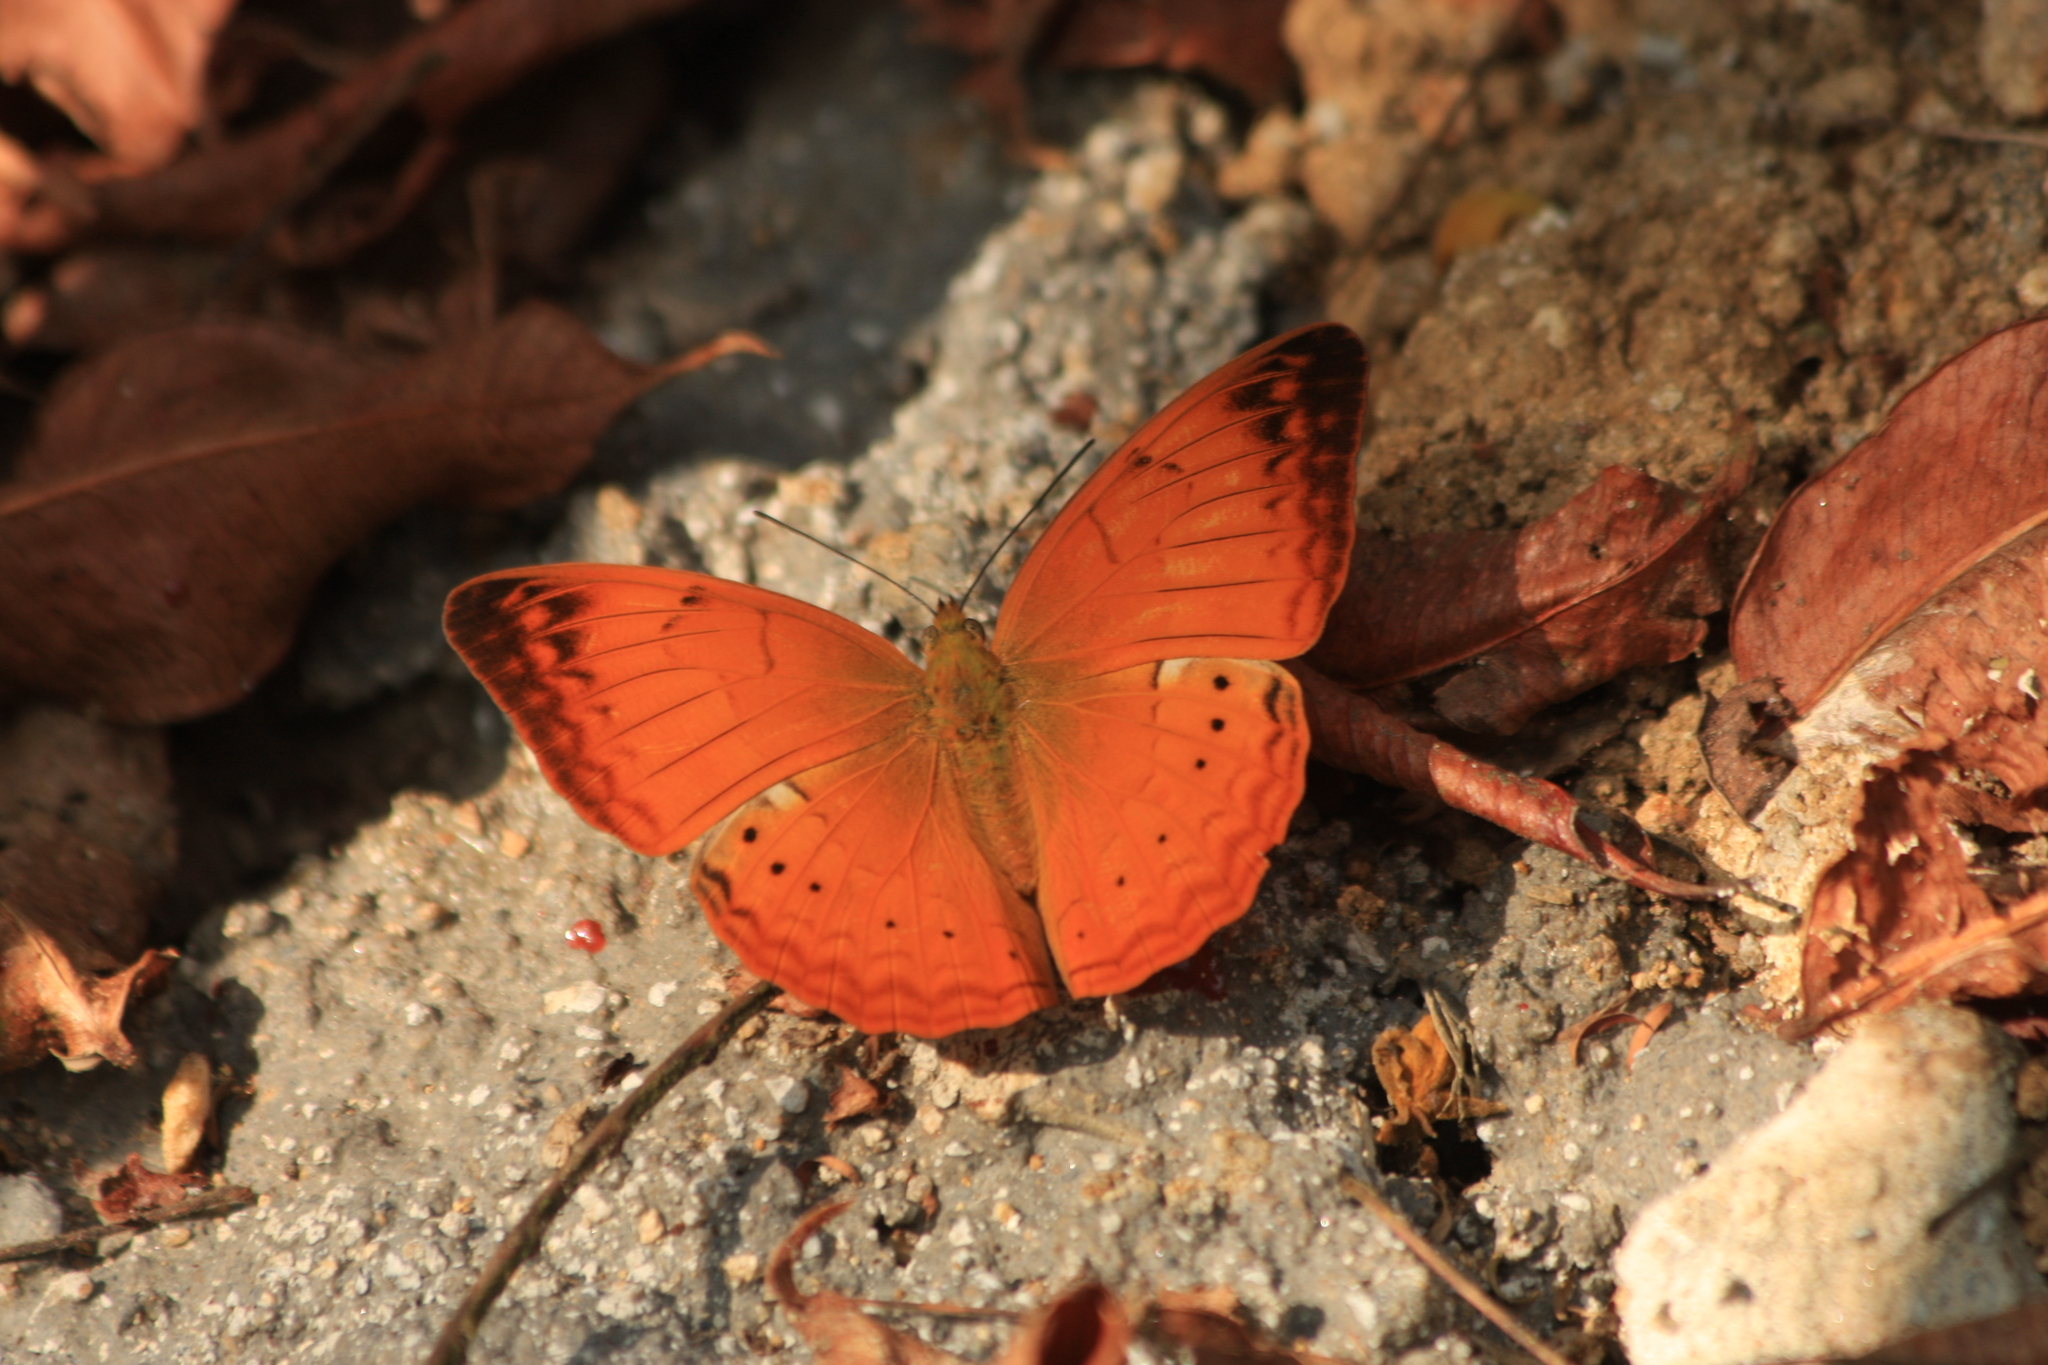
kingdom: Animalia
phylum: Arthropoda
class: Insecta
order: Lepidoptera
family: Nymphalidae
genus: Cirrochroa
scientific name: Cirrochroa thais
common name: Tamil yeoman
